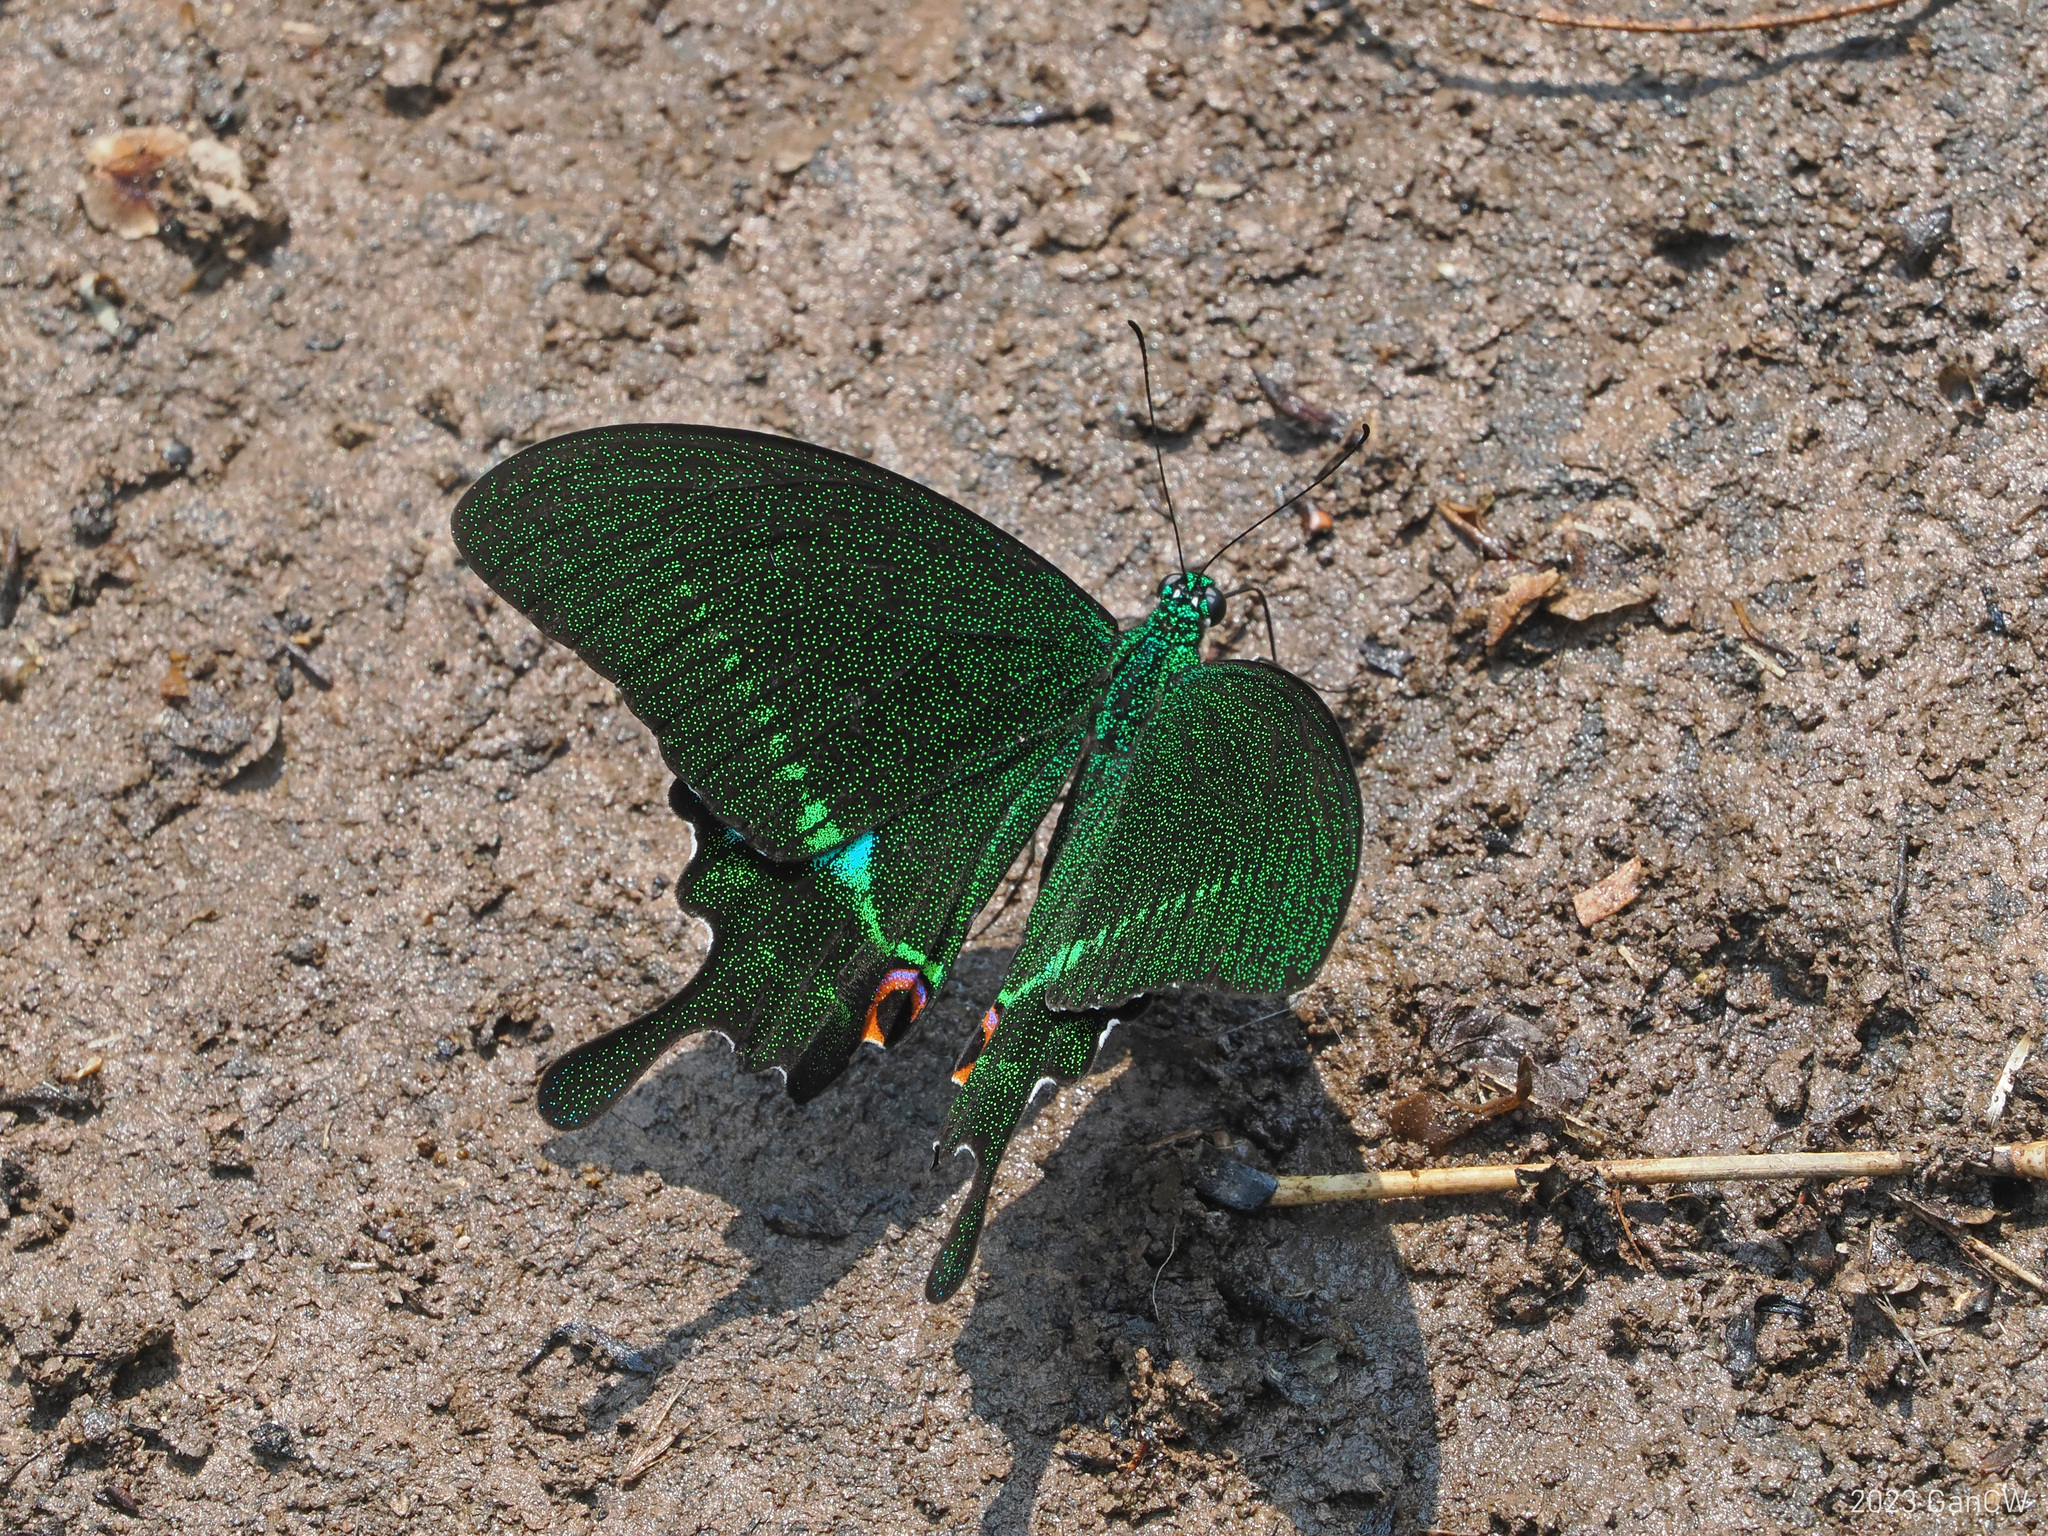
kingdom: Animalia
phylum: Arthropoda
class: Insecta
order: Lepidoptera
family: Papilionidae
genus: Papilio
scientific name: Papilio paris
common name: Paris peacock
